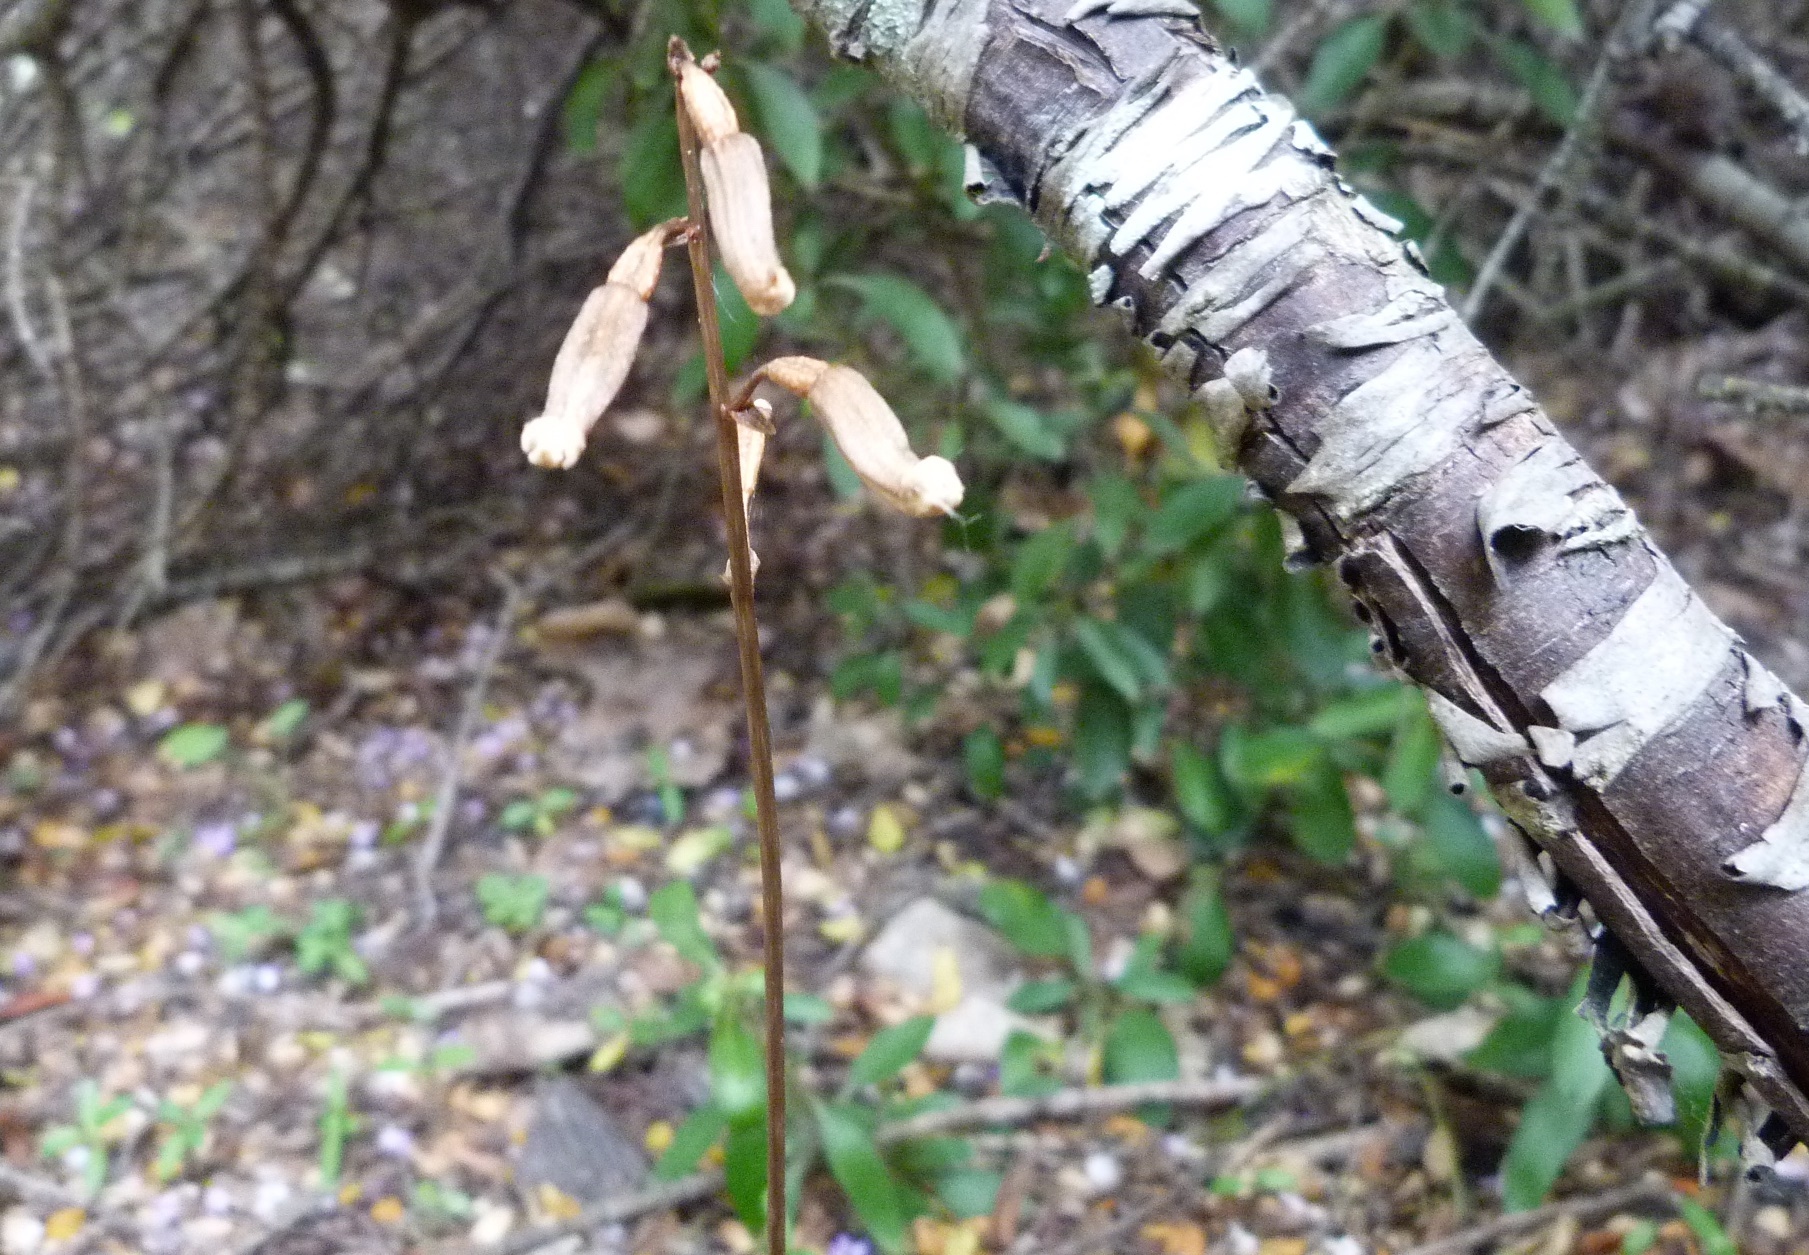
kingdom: Plantae
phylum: Tracheophyta
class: Liliopsida
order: Asparagales
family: Orchidaceae
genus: Gastrodia
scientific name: Gastrodia minor
